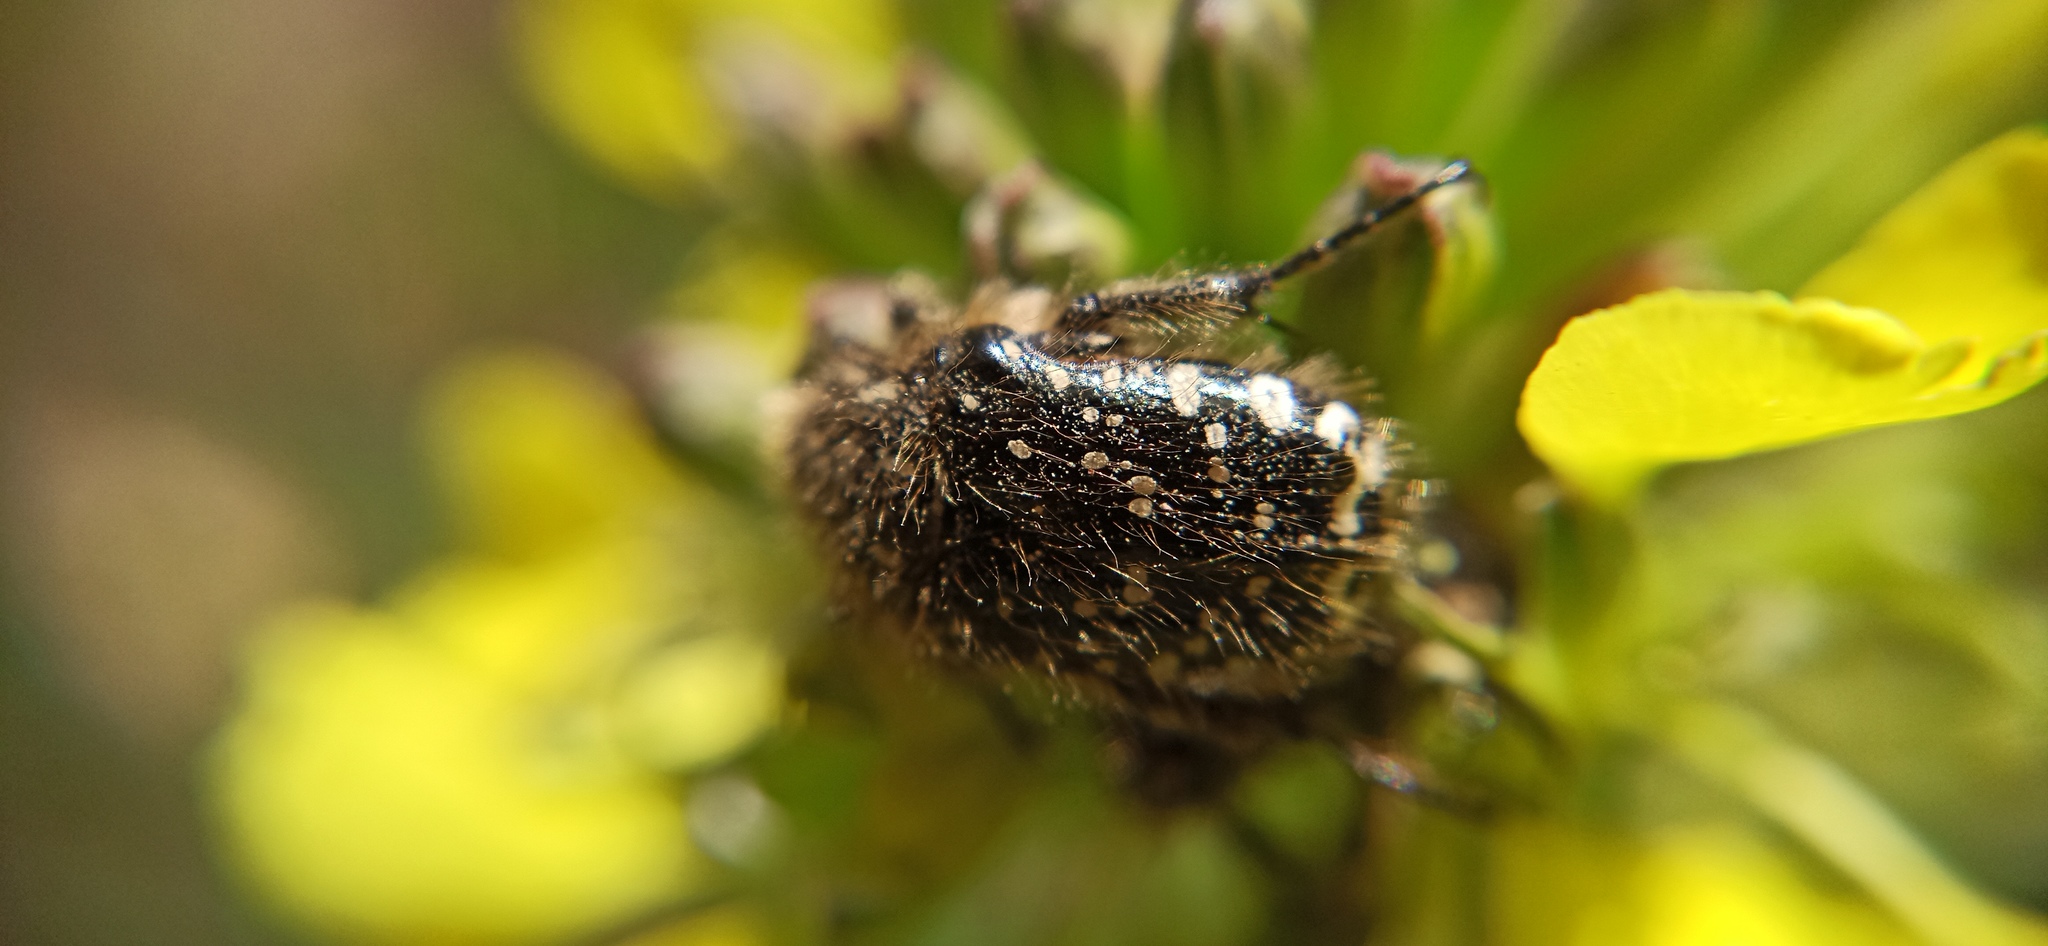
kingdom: Animalia
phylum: Arthropoda
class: Insecta
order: Coleoptera
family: Scarabaeidae
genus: Oxythyrea
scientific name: Oxythyrea funesta
